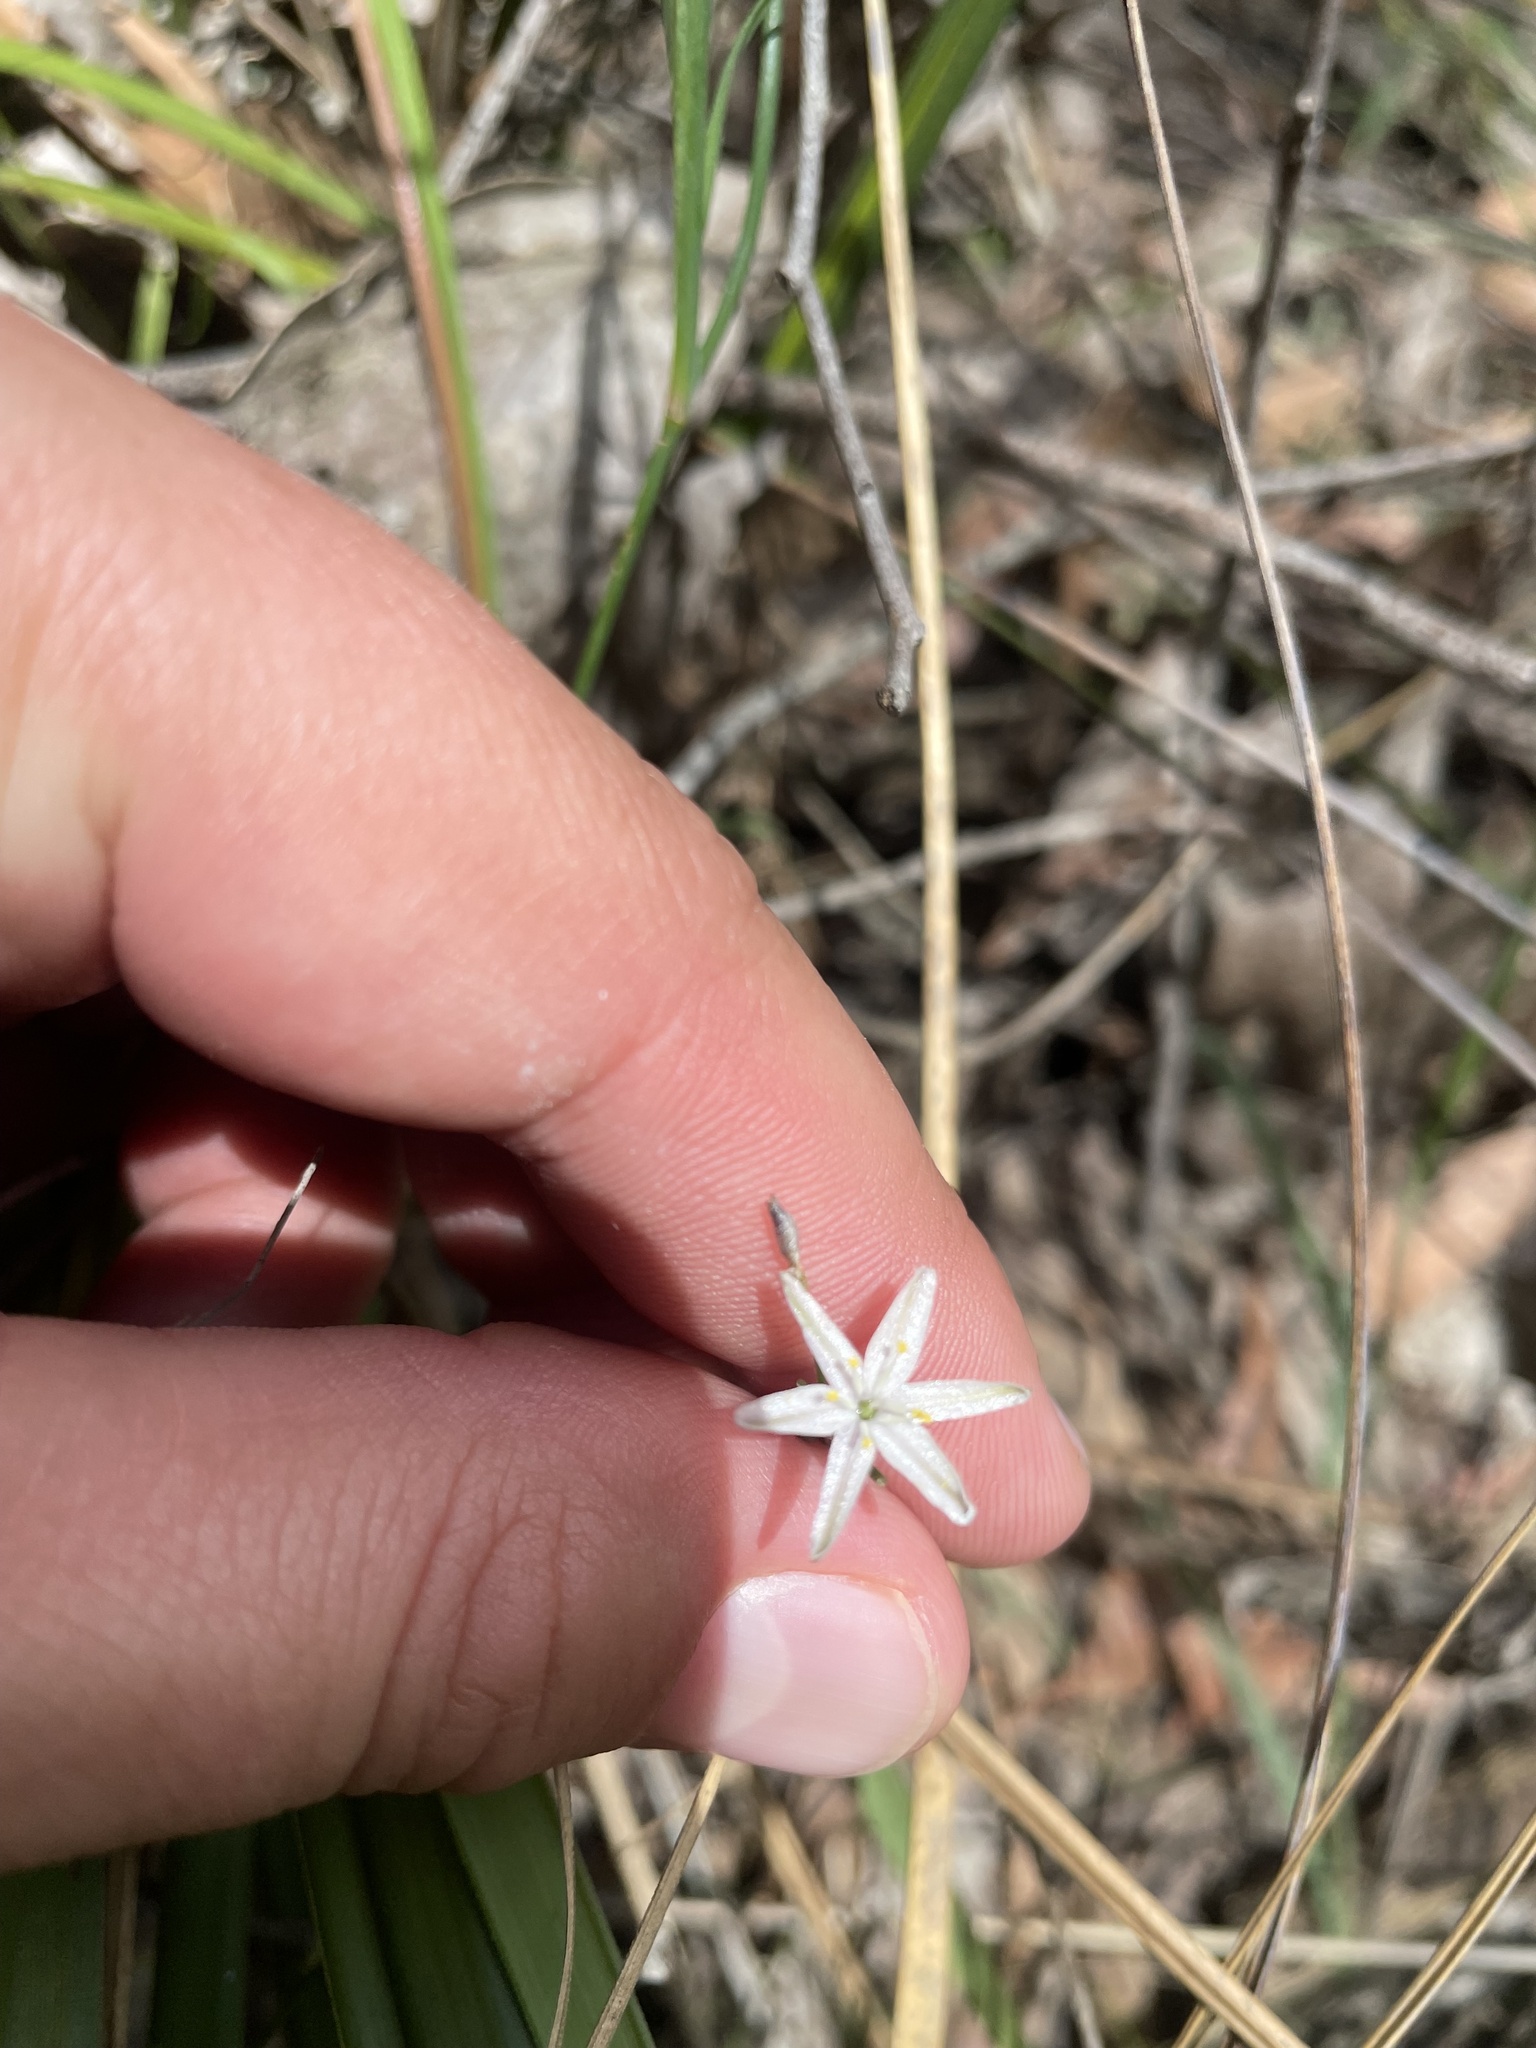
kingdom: Plantae
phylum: Tracheophyta
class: Liliopsida
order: Asparagales
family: Asphodelaceae
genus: Caesia
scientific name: Caesia parviflora
